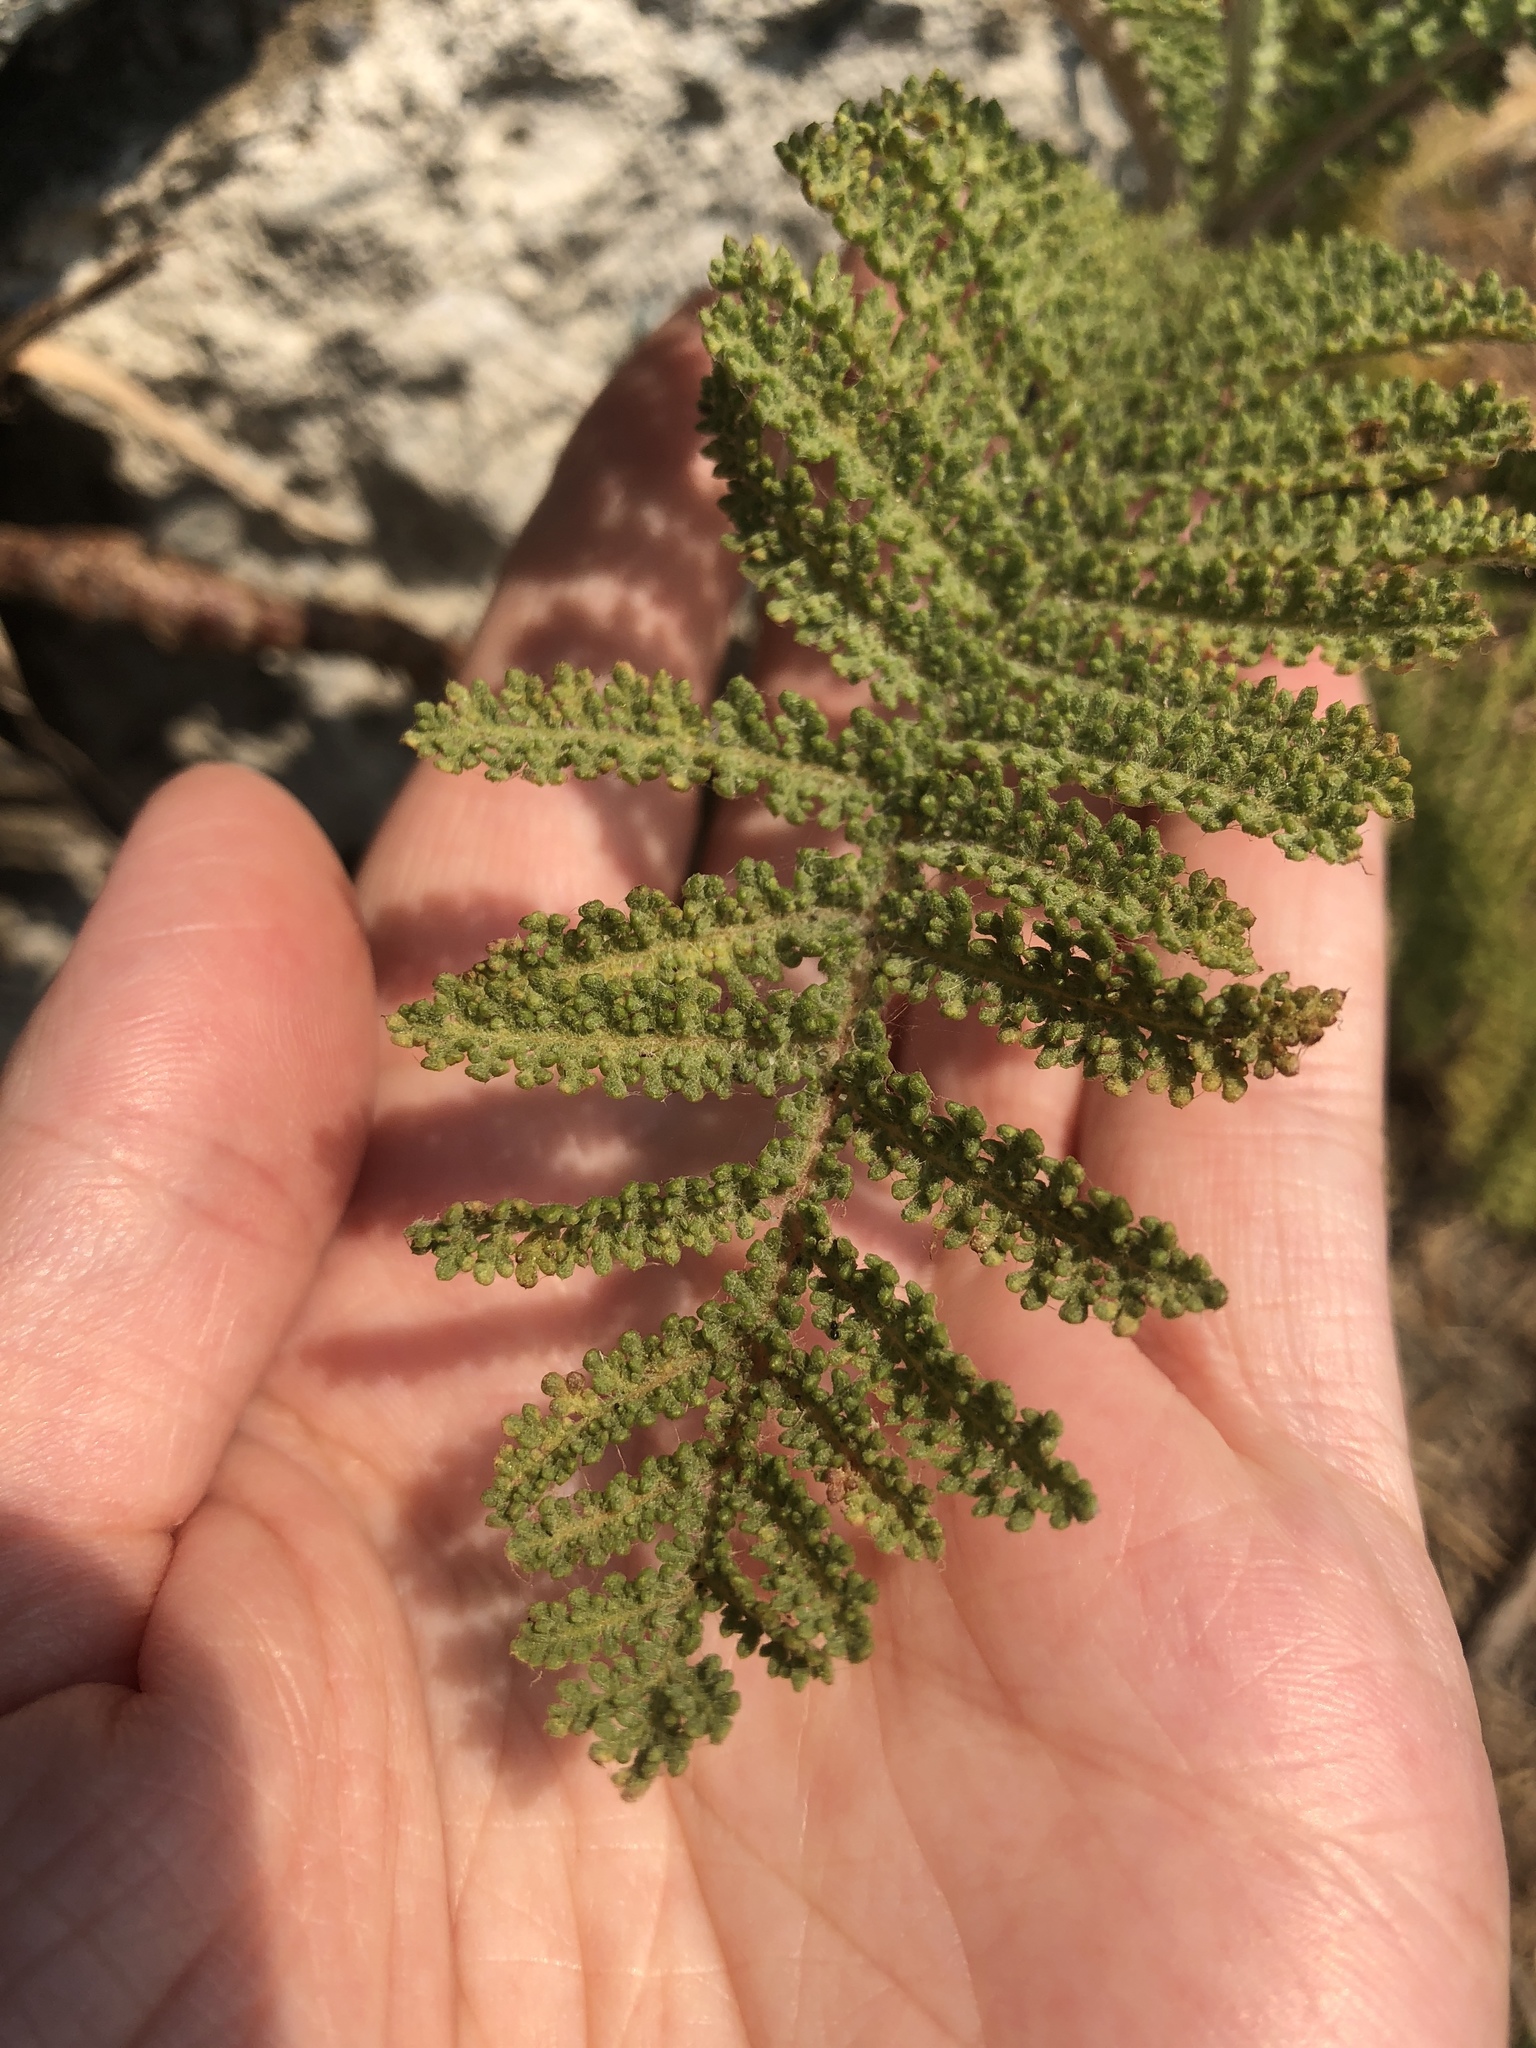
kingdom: Plantae
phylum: Tracheophyta
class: Magnoliopsida
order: Asterales
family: Asteraceae
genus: Tanacetum
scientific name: Tanacetum bipinnatum
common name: Dwarf tansy
